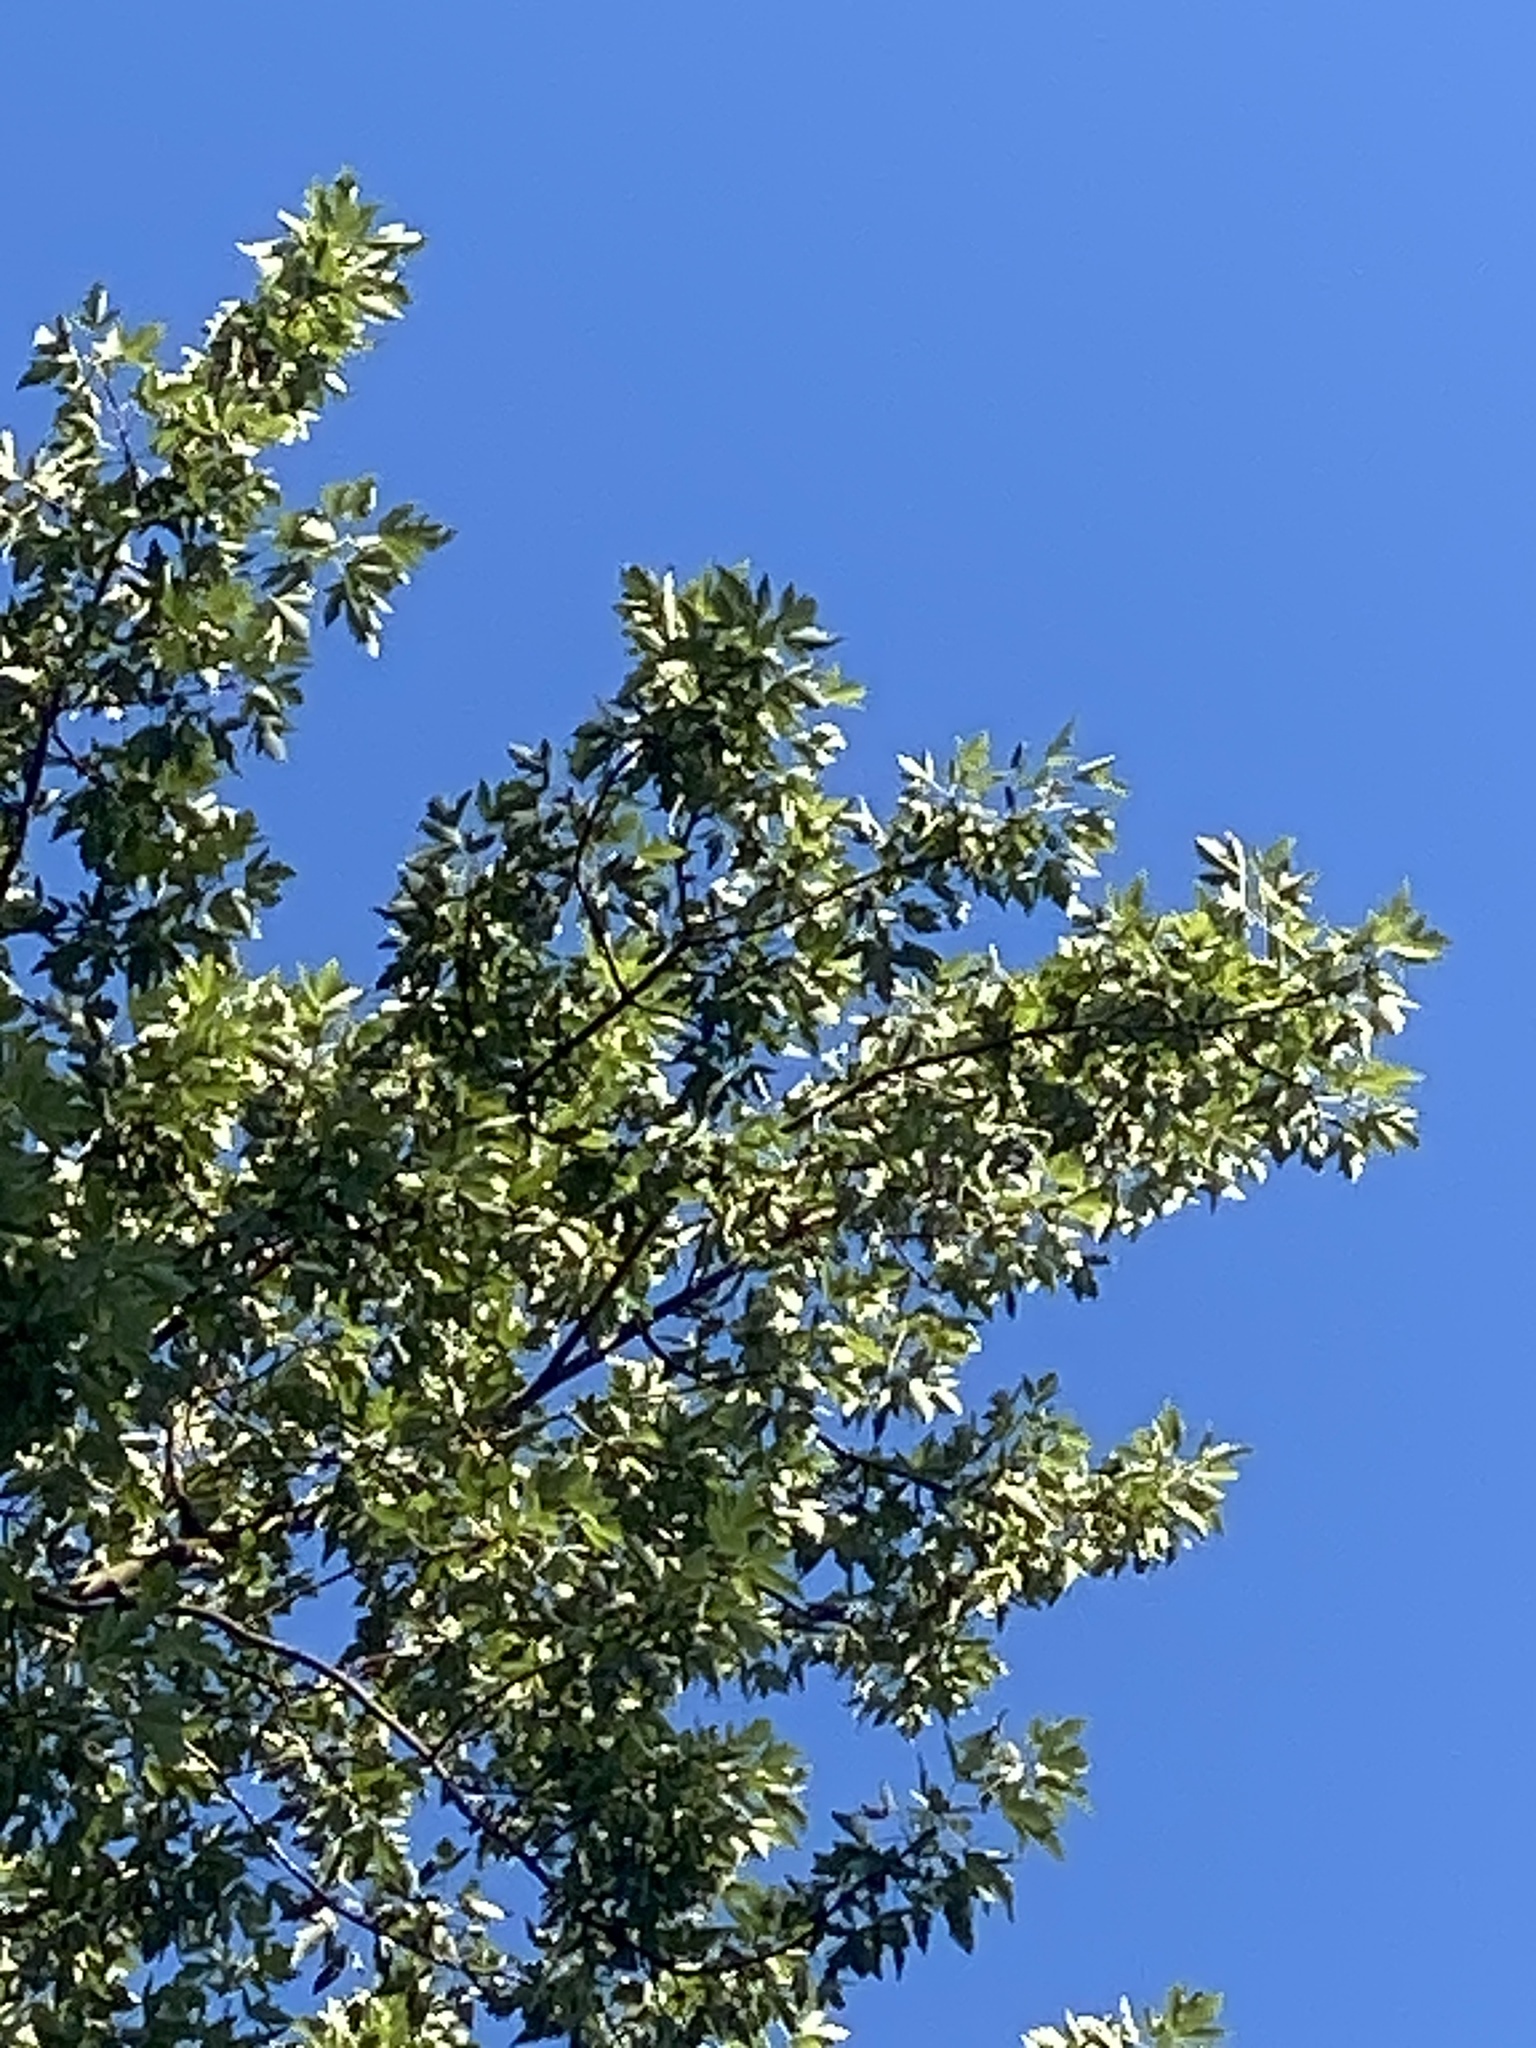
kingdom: Plantae
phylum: Tracheophyta
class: Magnoliopsida
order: Malpighiales
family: Salicaceae
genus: Populus
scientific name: Populus deltoides
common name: Eastern cottonwood
